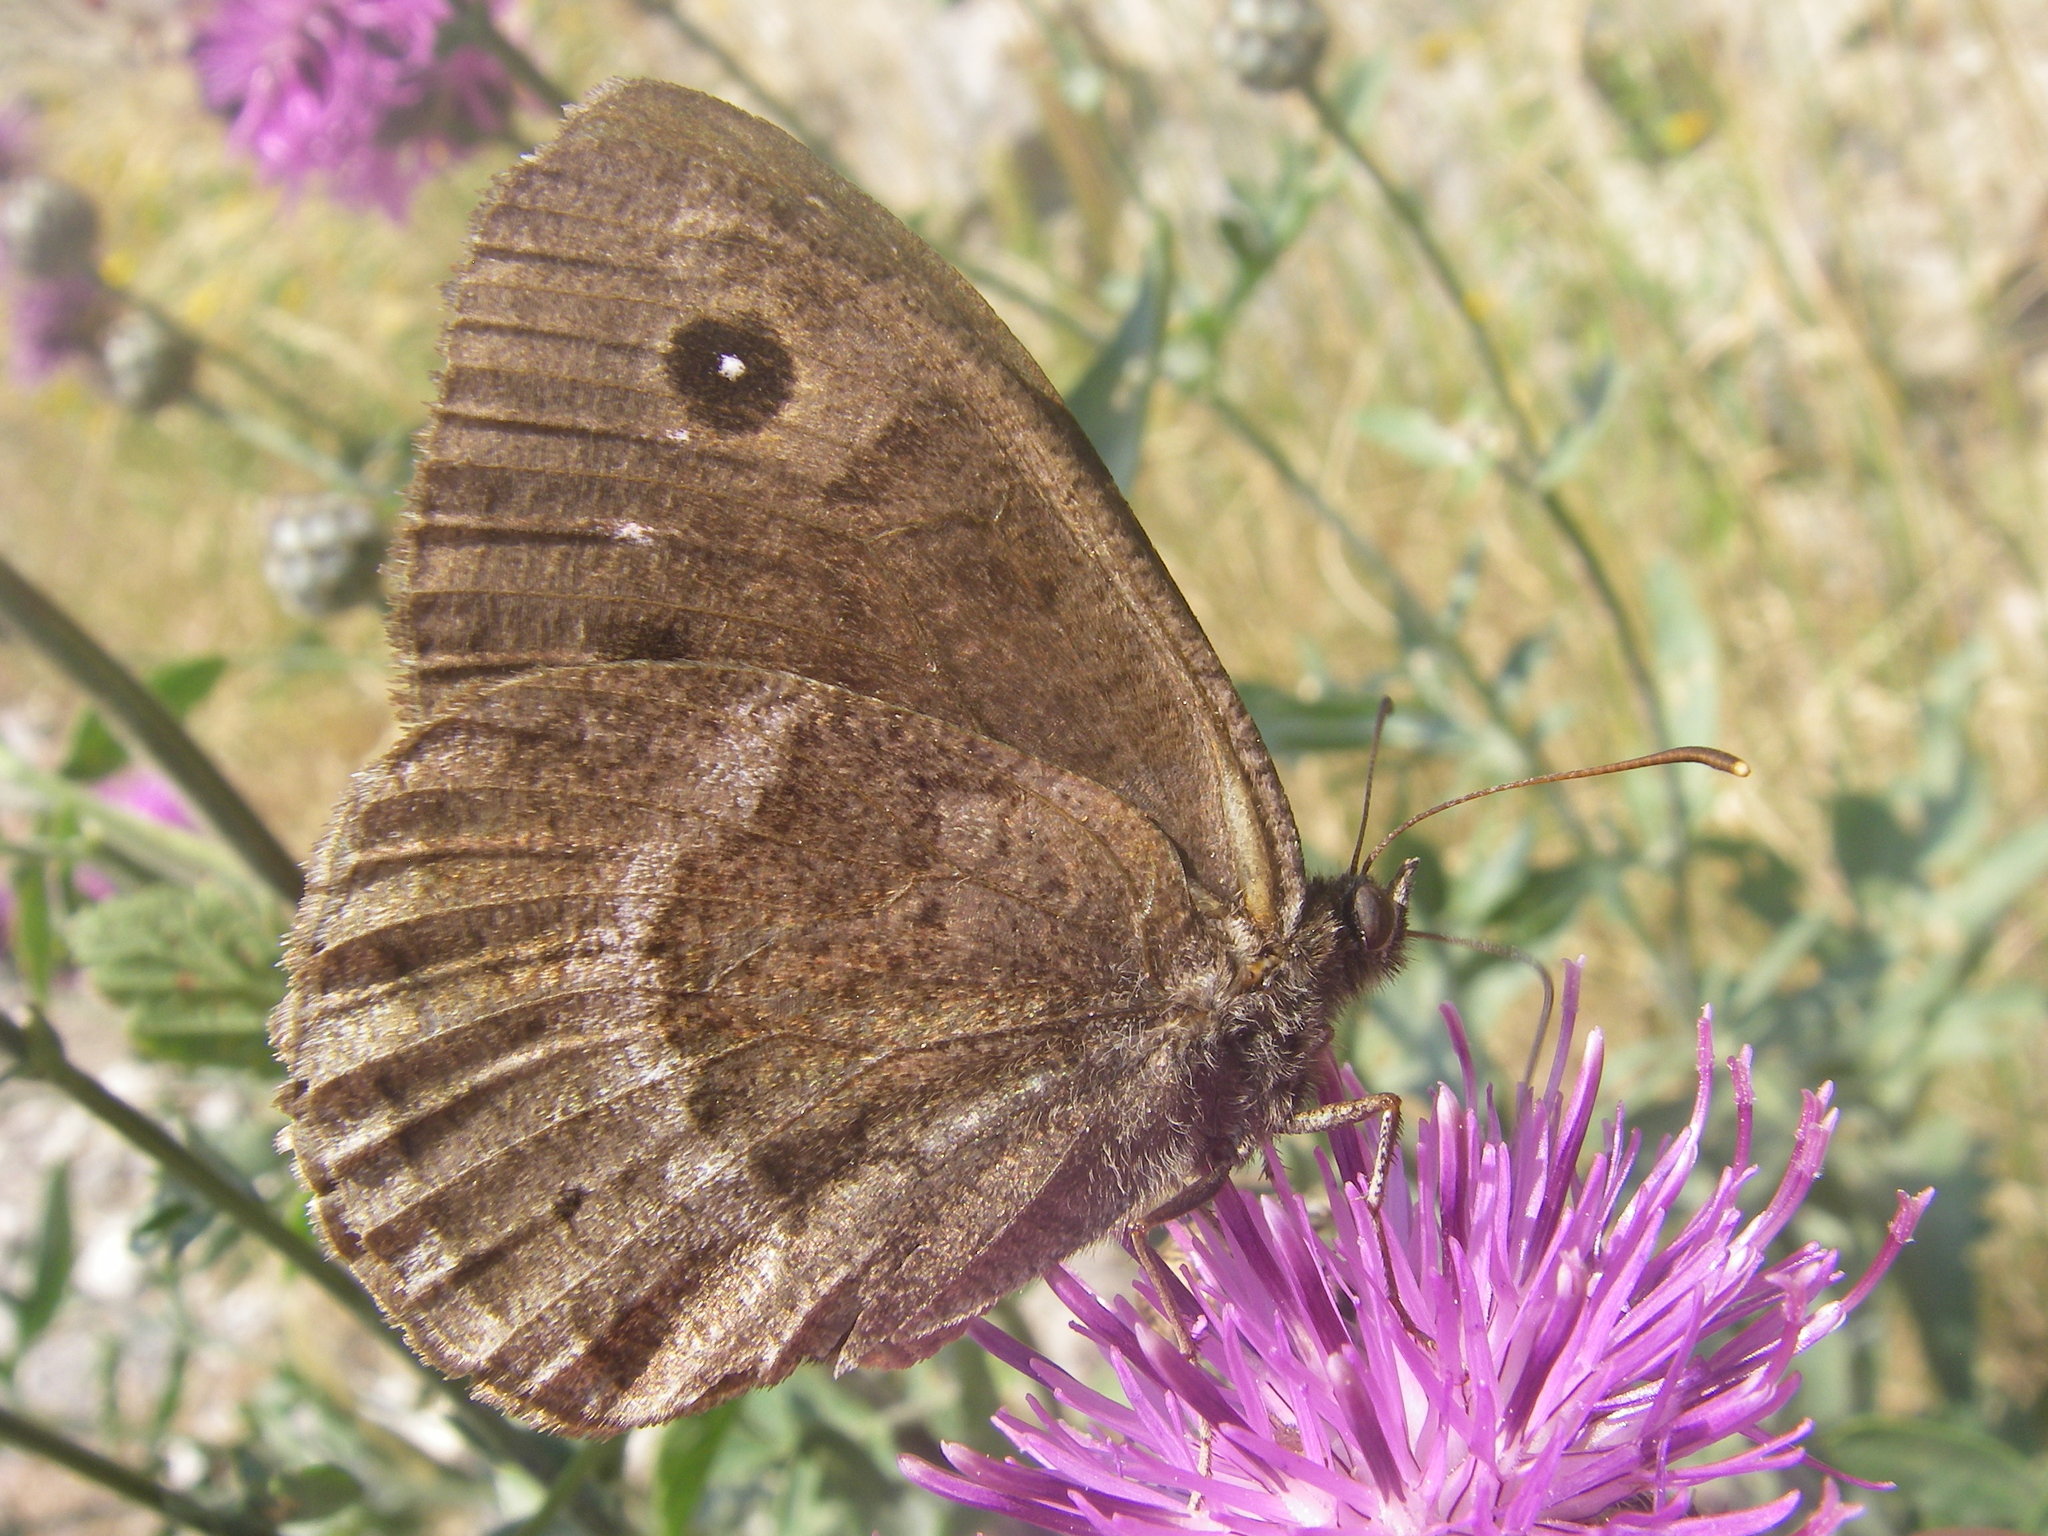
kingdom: Animalia
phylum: Arthropoda
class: Insecta
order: Lepidoptera
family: Nymphalidae
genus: Satyrus
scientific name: Satyrus ferula
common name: Great sooty satyr
